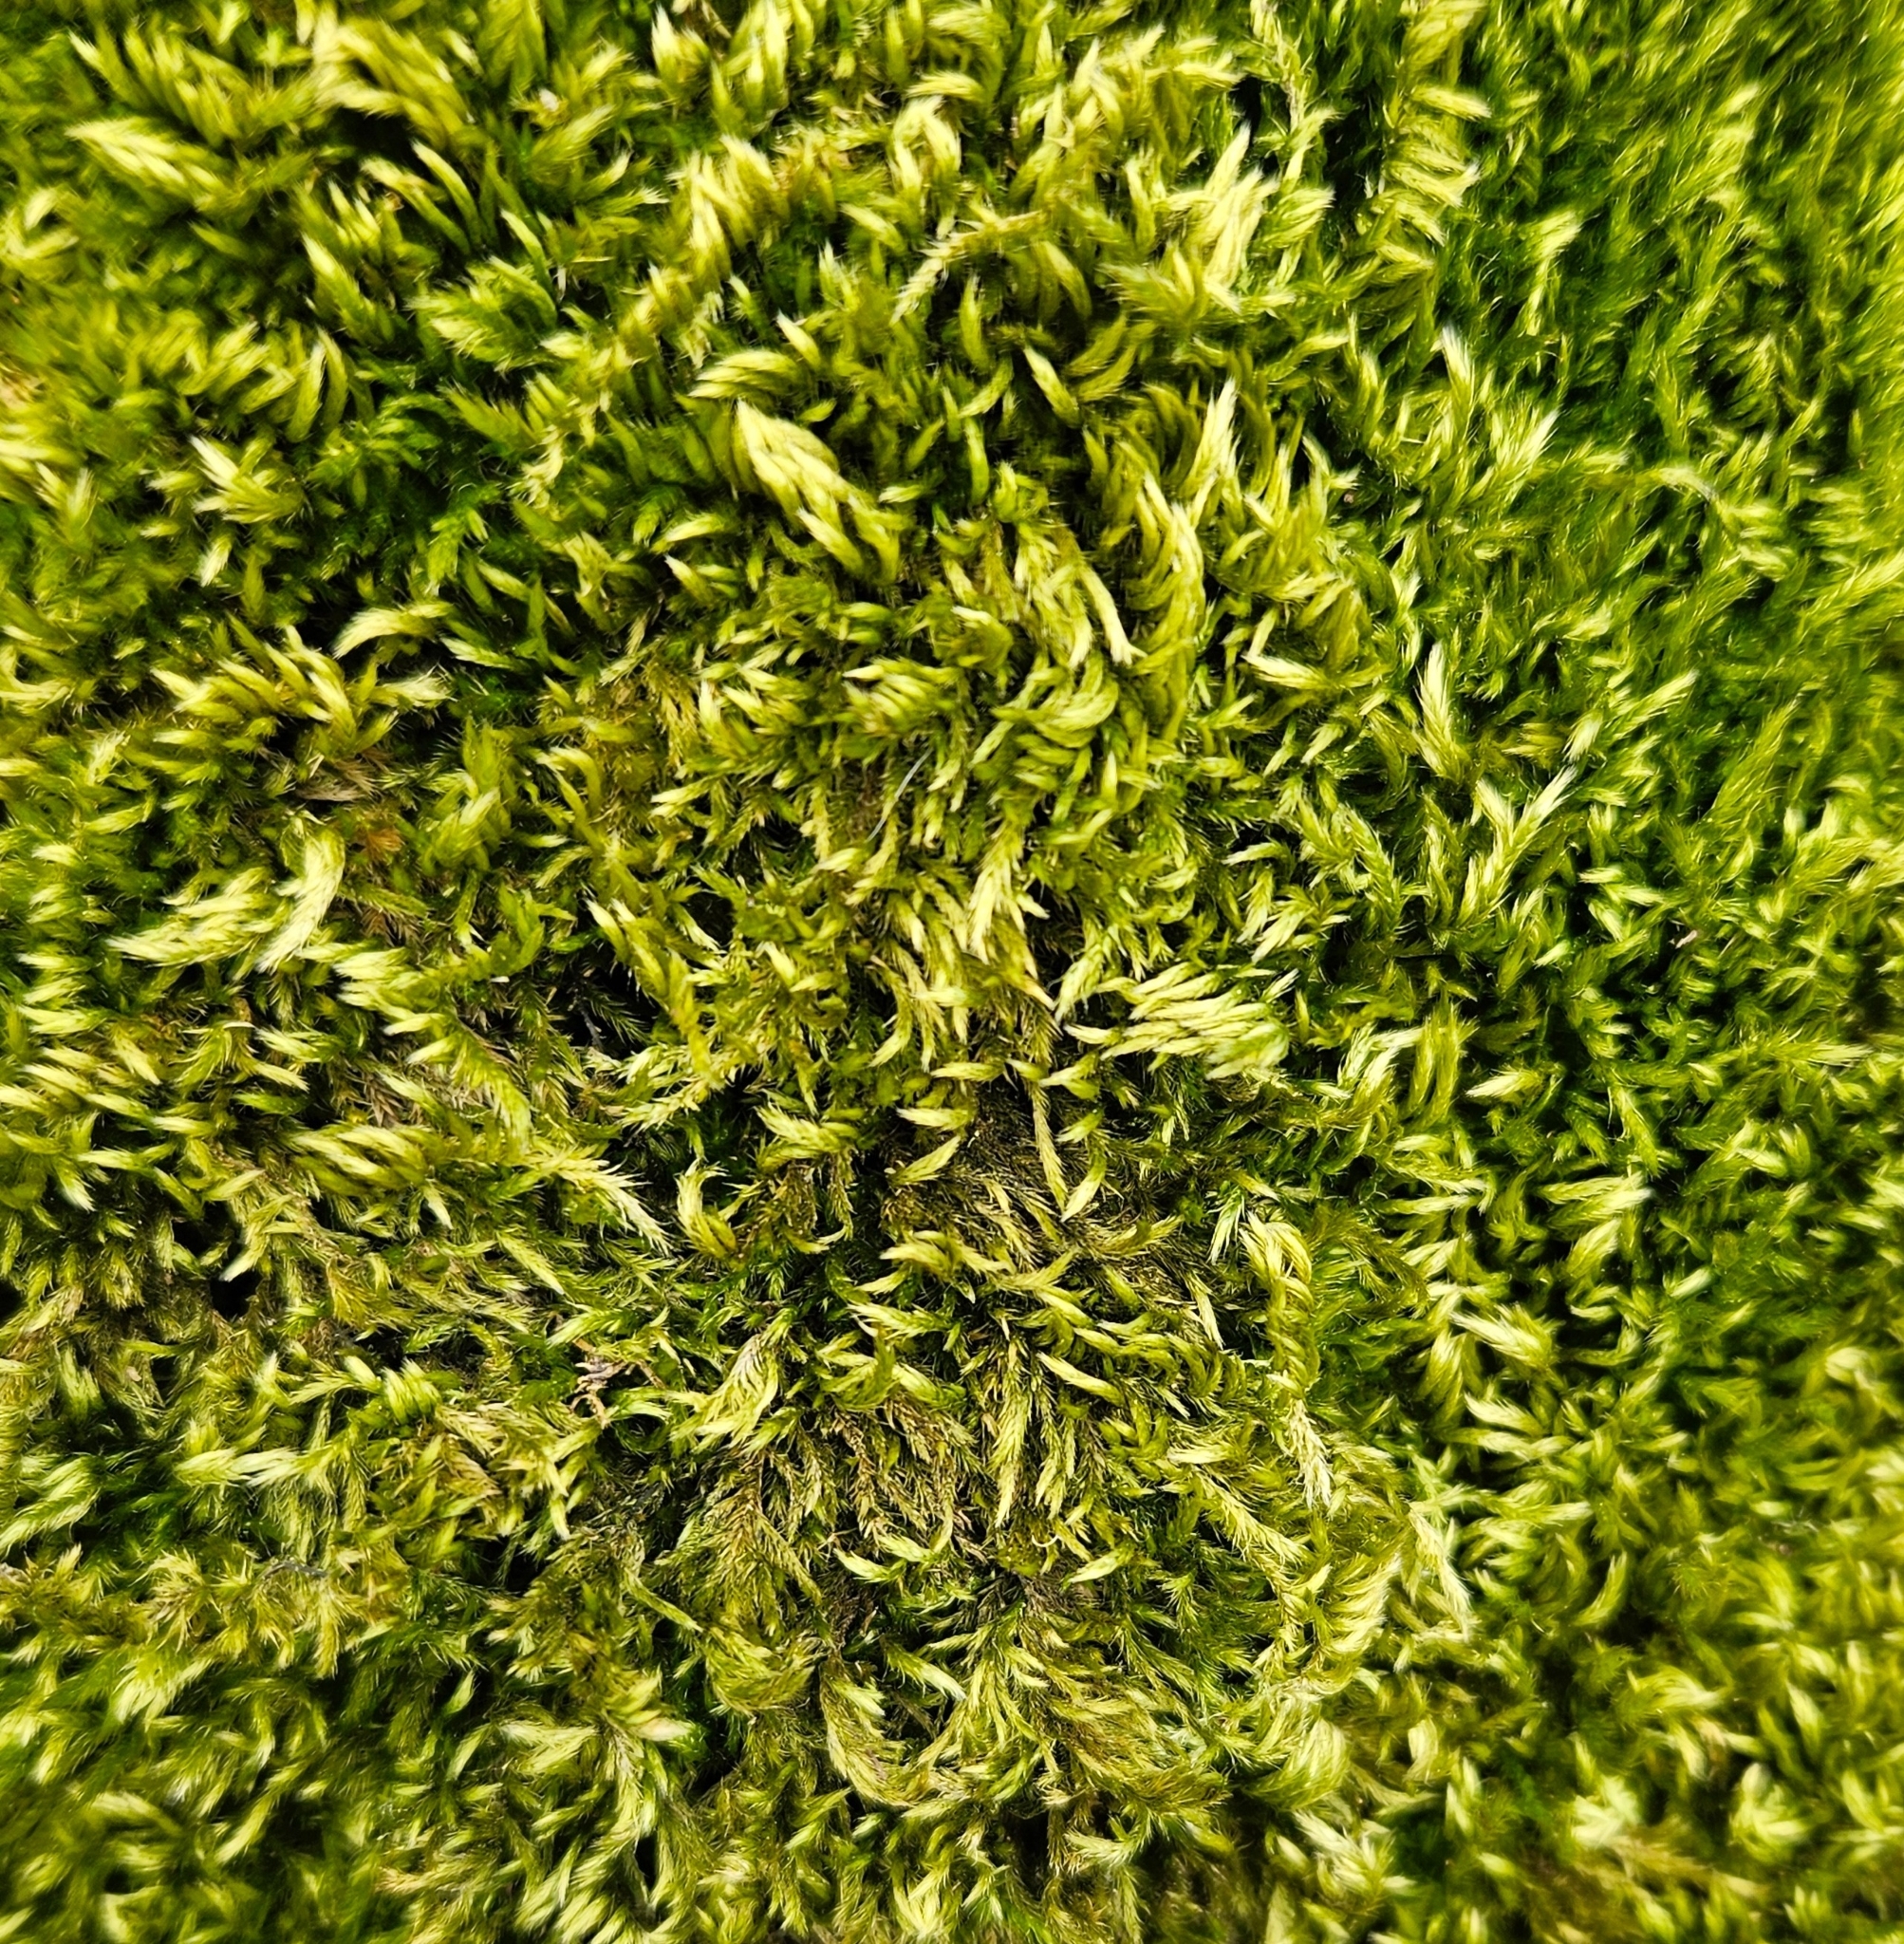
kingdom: Plantae
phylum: Bryophyta
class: Bryopsida
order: Hypnales
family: Brachytheciaceae
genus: Homalothecium
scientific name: Homalothecium sericeum
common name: Silky wall feather-moss
